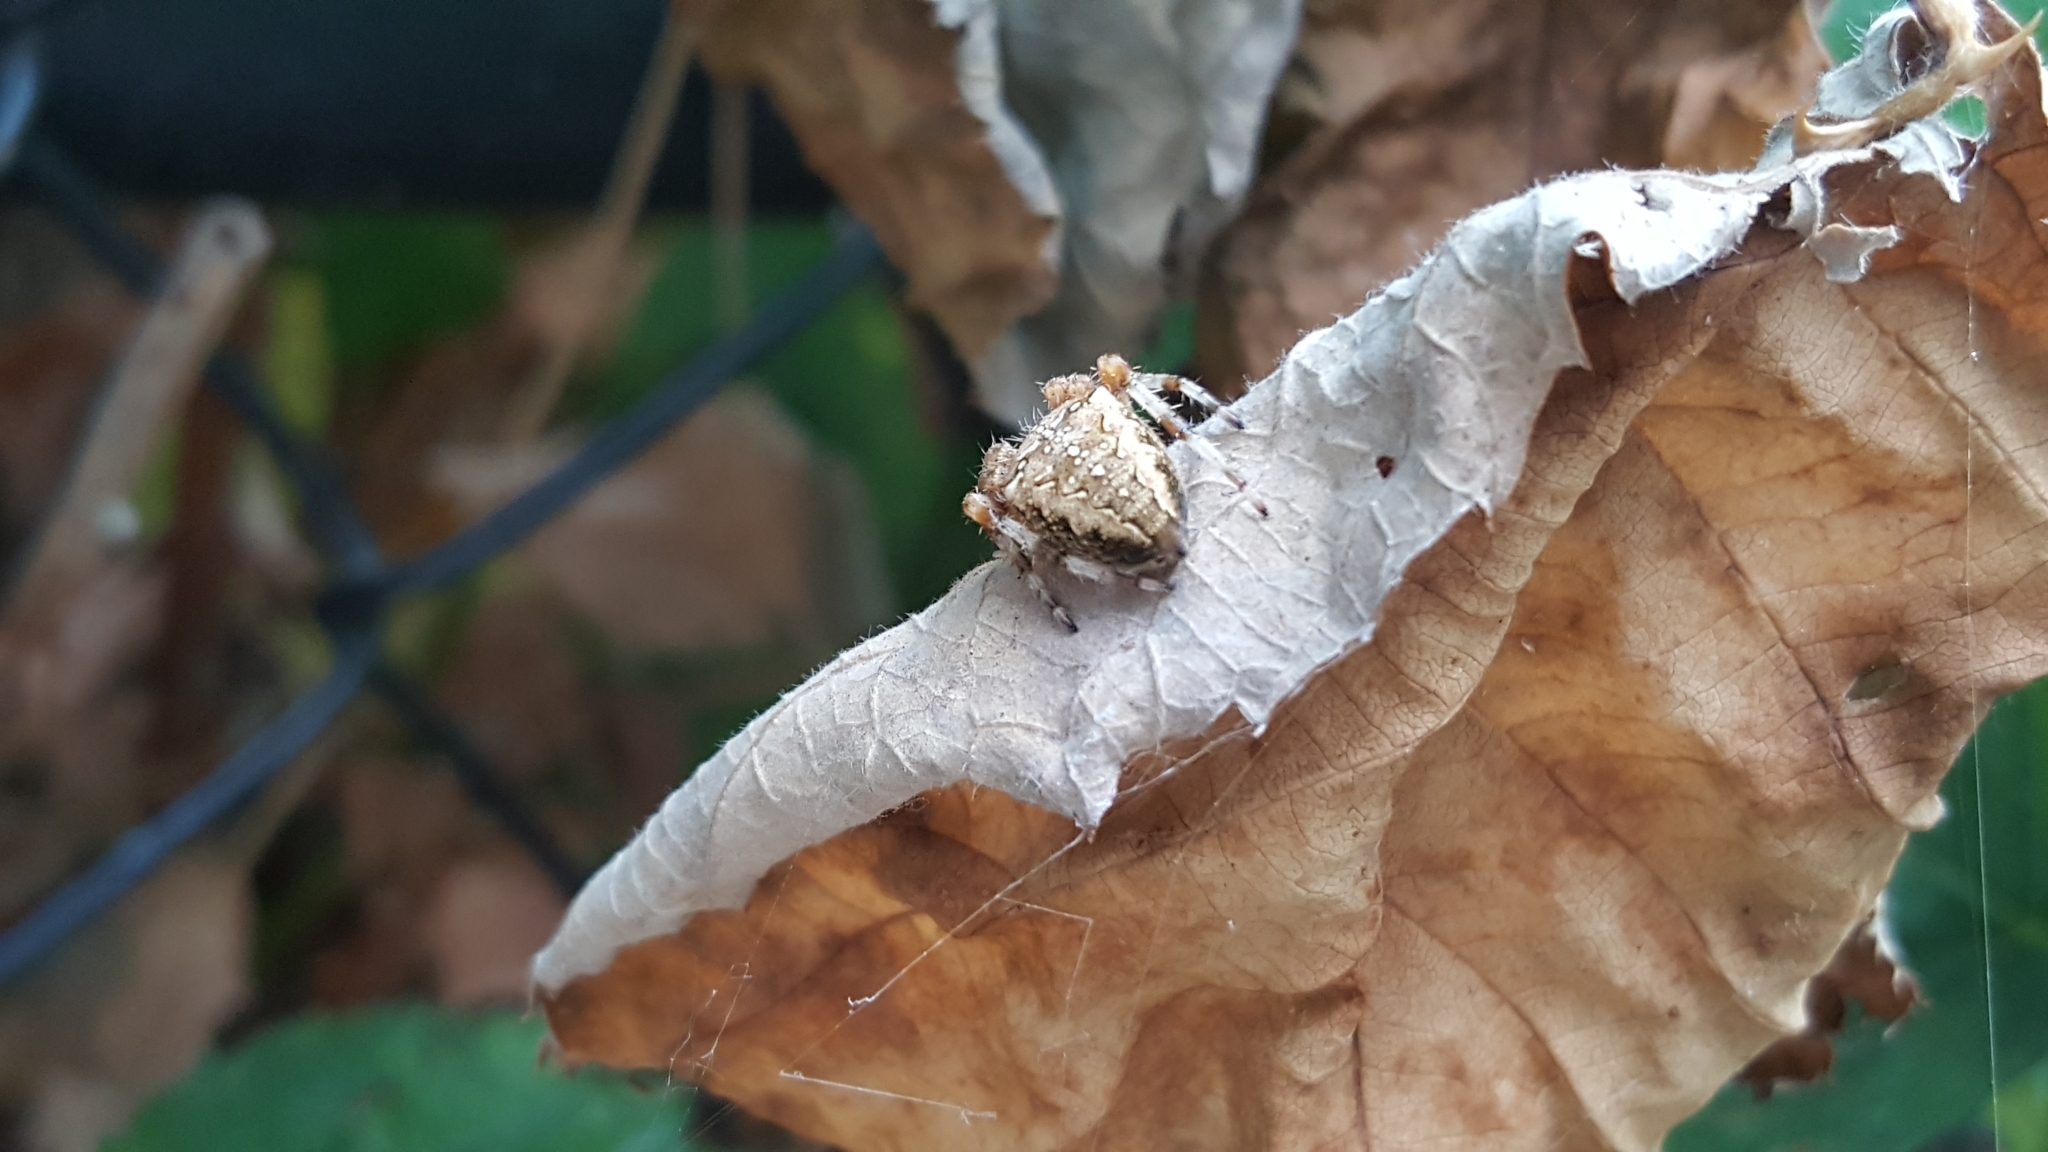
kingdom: Animalia
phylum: Arthropoda
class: Arachnida
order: Araneae
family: Araneidae
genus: Araneus
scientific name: Araneus diadematus
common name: Cross orbweaver
